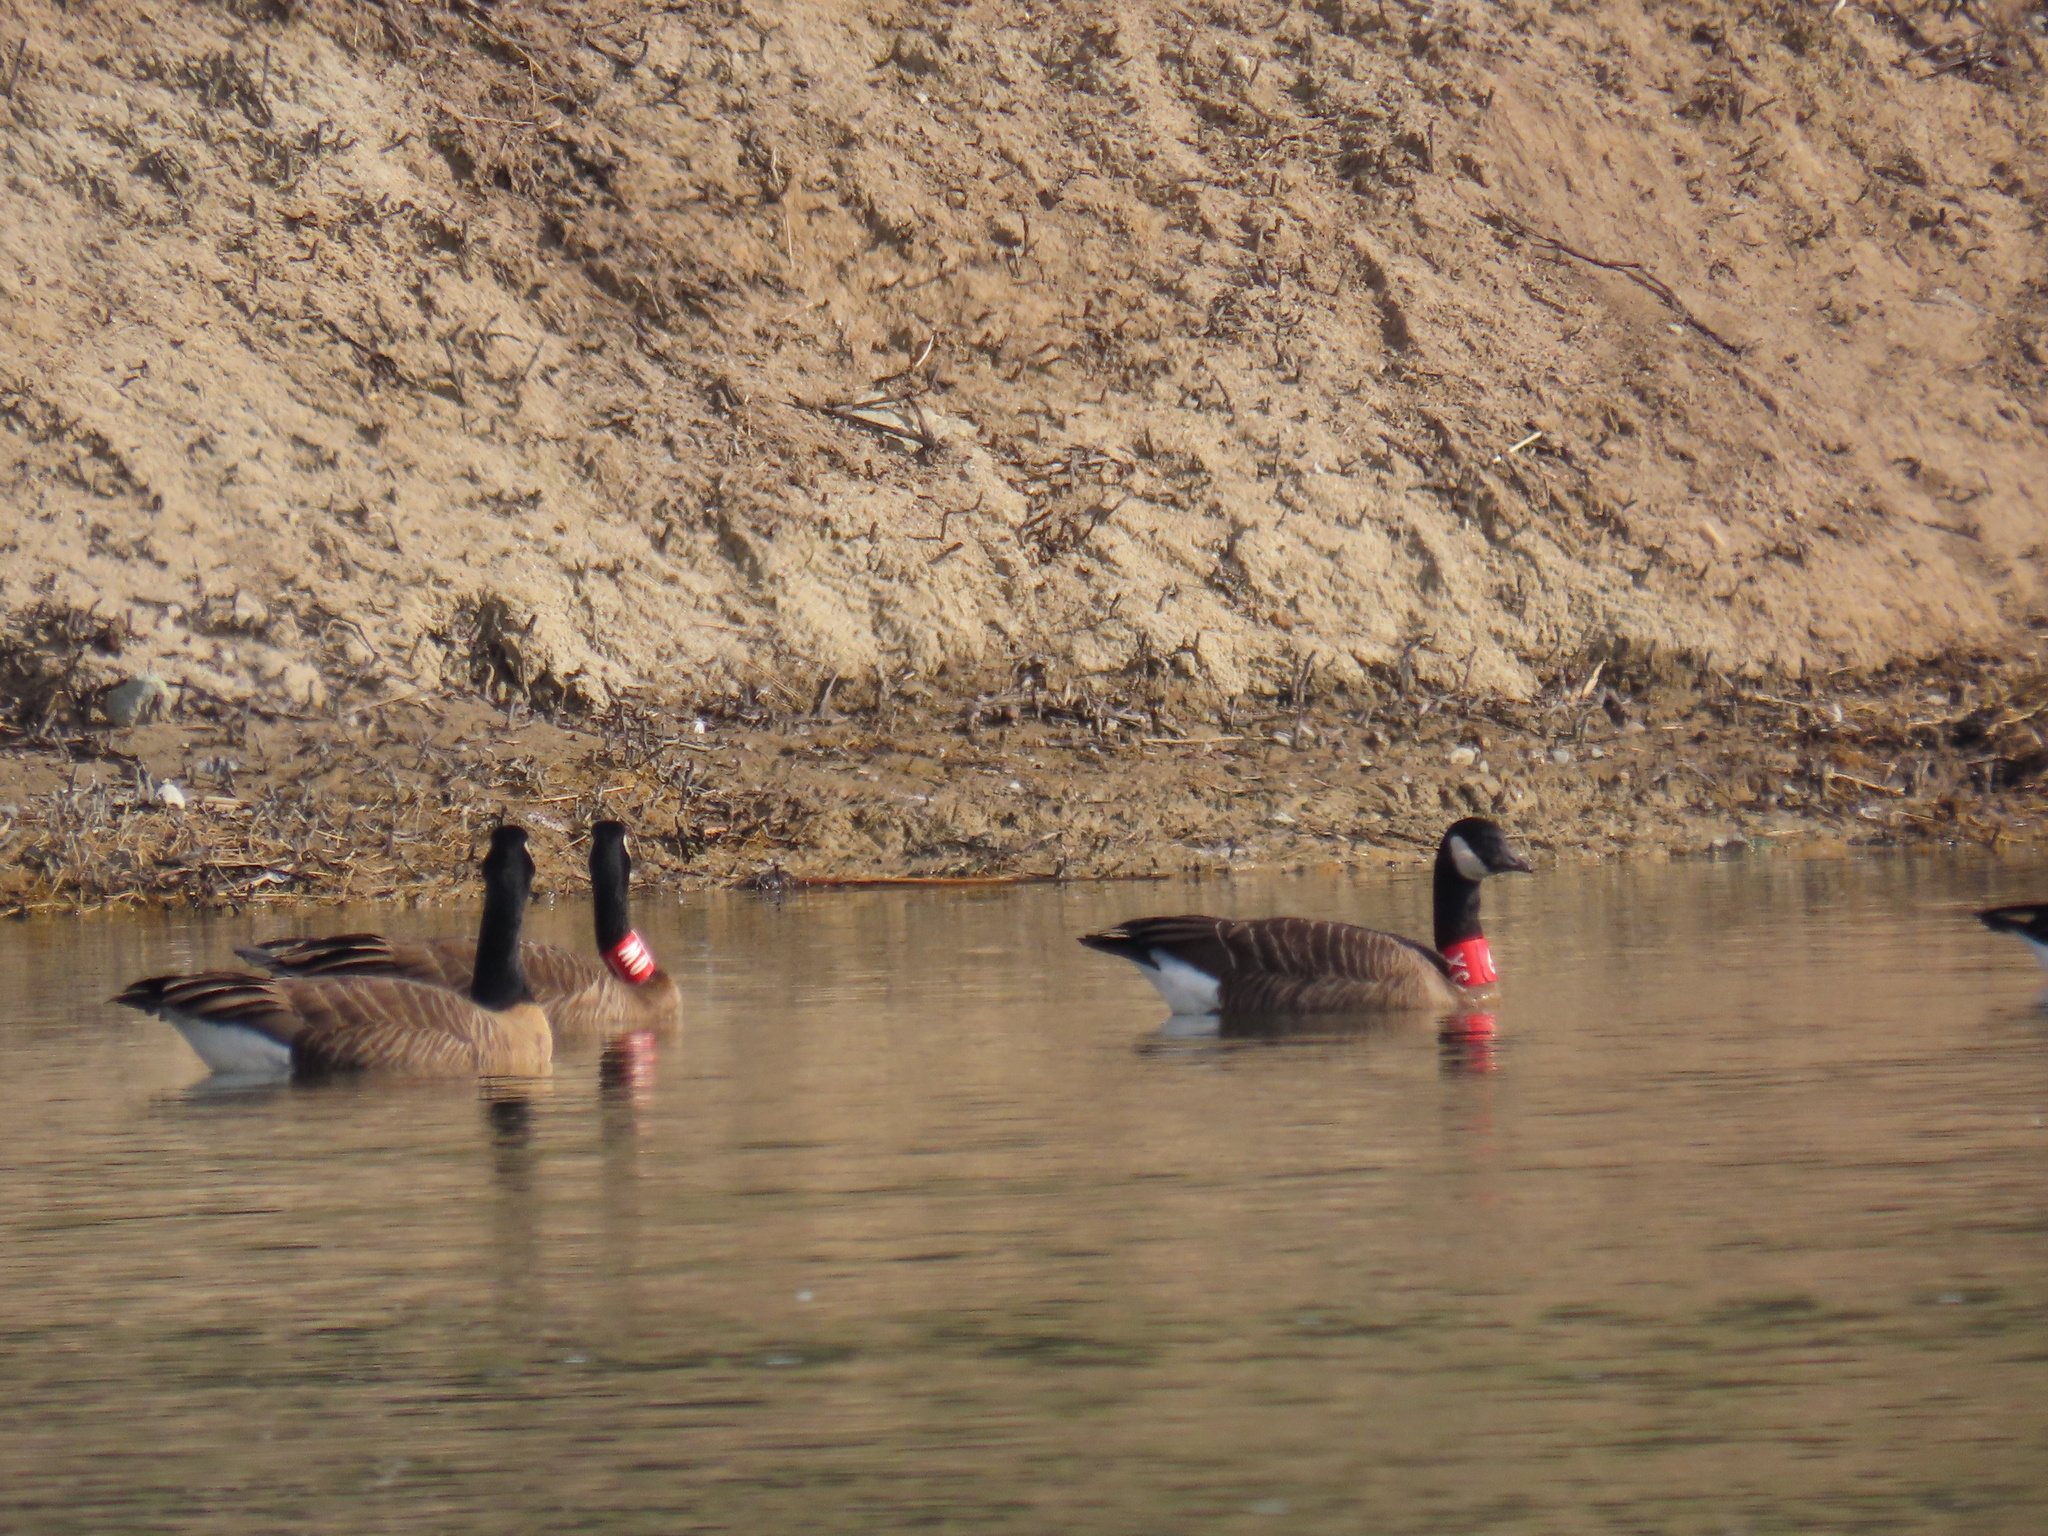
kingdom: Animalia
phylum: Chordata
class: Aves
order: Anseriformes
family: Anatidae
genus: Branta
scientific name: Branta hutchinsii
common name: Cackling goose
